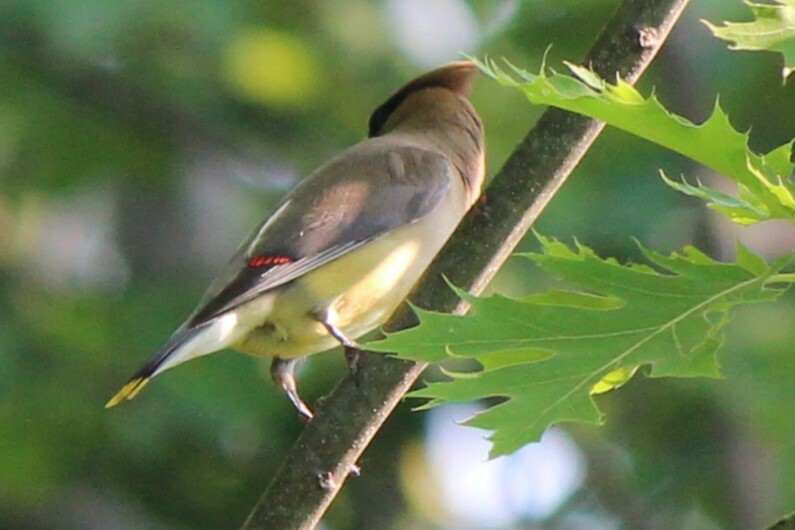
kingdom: Animalia
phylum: Chordata
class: Aves
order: Passeriformes
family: Bombycillidae
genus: Bombycilla
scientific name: Bombycilla cedrorum
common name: Cedar waxwing
